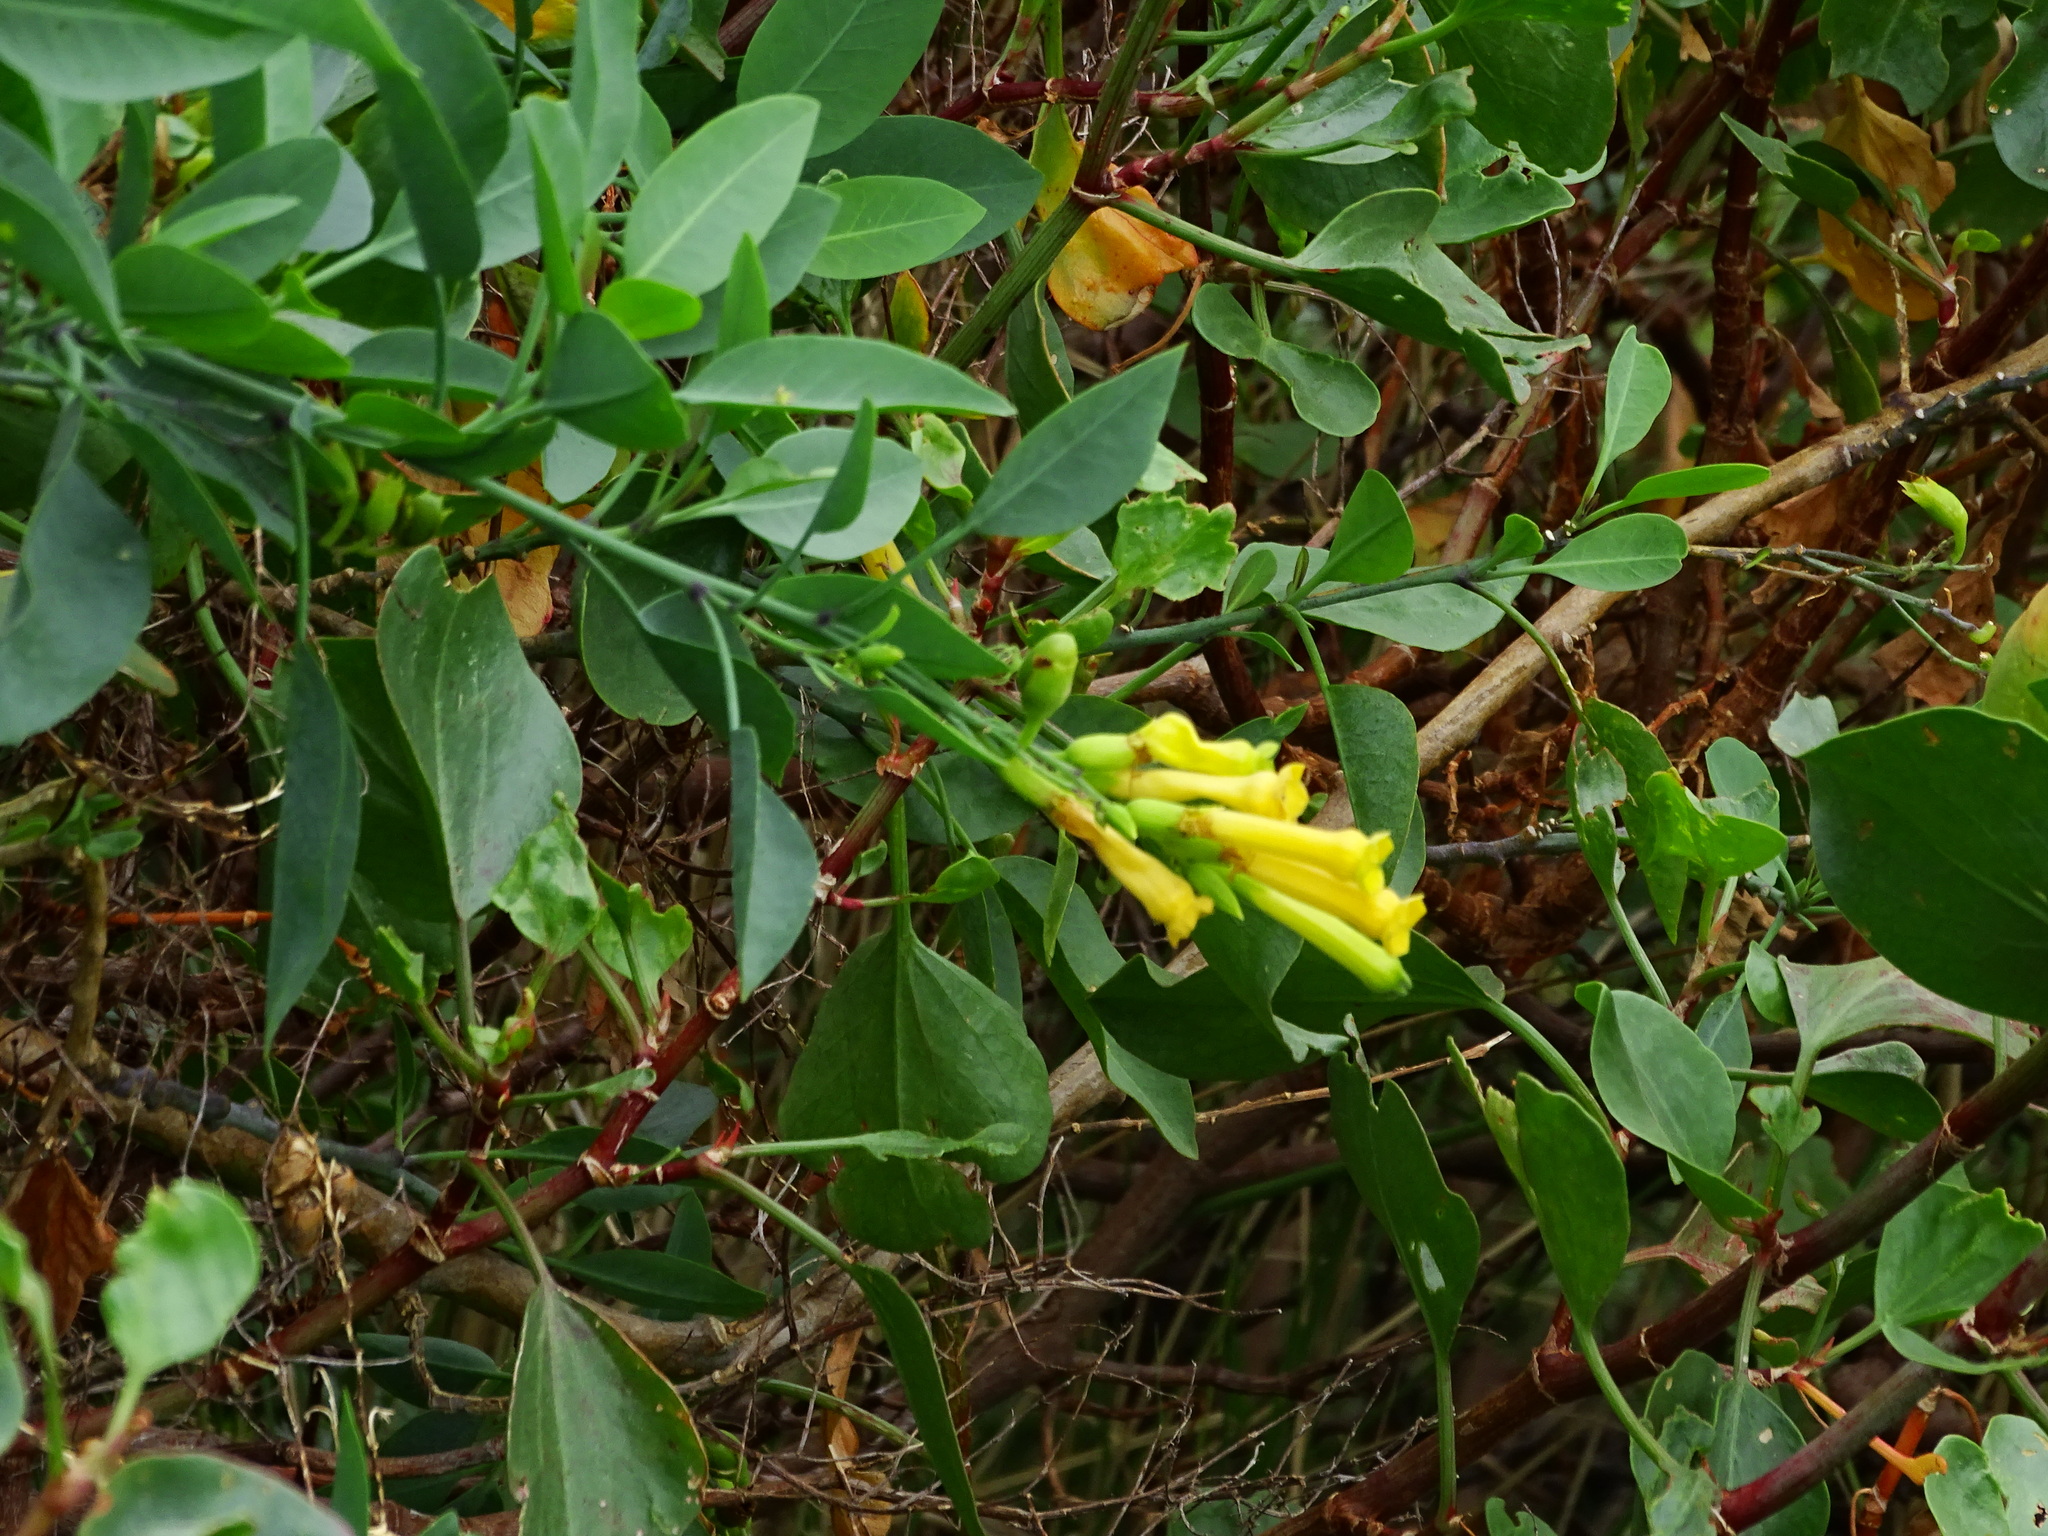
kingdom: Plantae
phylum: Tracheophyta
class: Magnoliopsida
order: Solanales
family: Solanaceae
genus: Nicotiana
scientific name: Nicotiana glauca
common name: Tree tobacco
